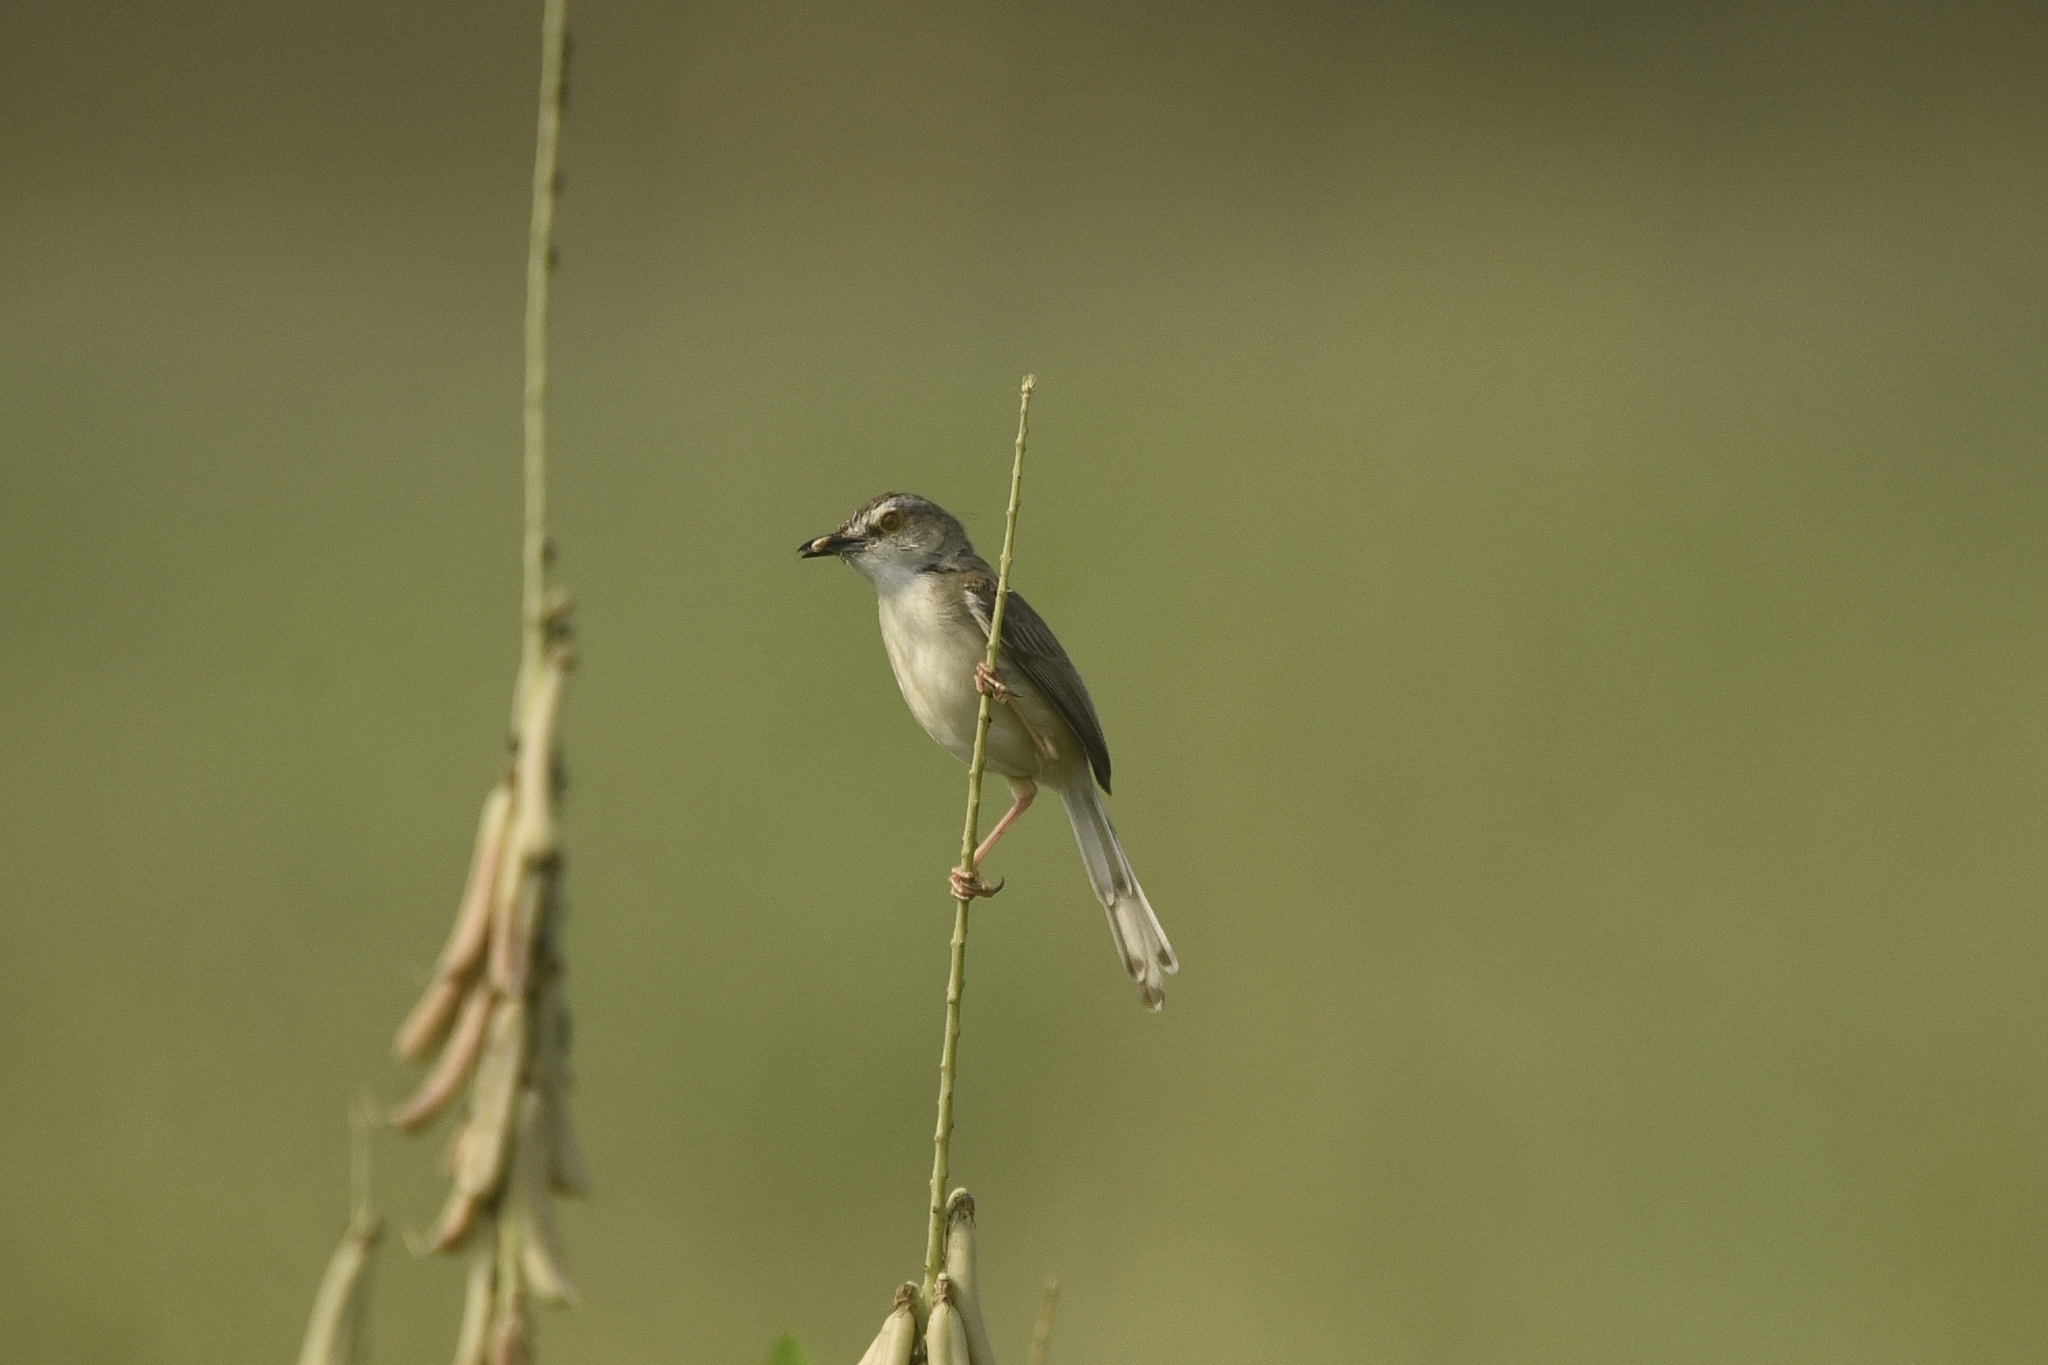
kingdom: Animalia
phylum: Chordata
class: Aves
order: Passeriformes
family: Cisticolidae
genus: Prinia
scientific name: Prinia inornata
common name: Plain prinia
